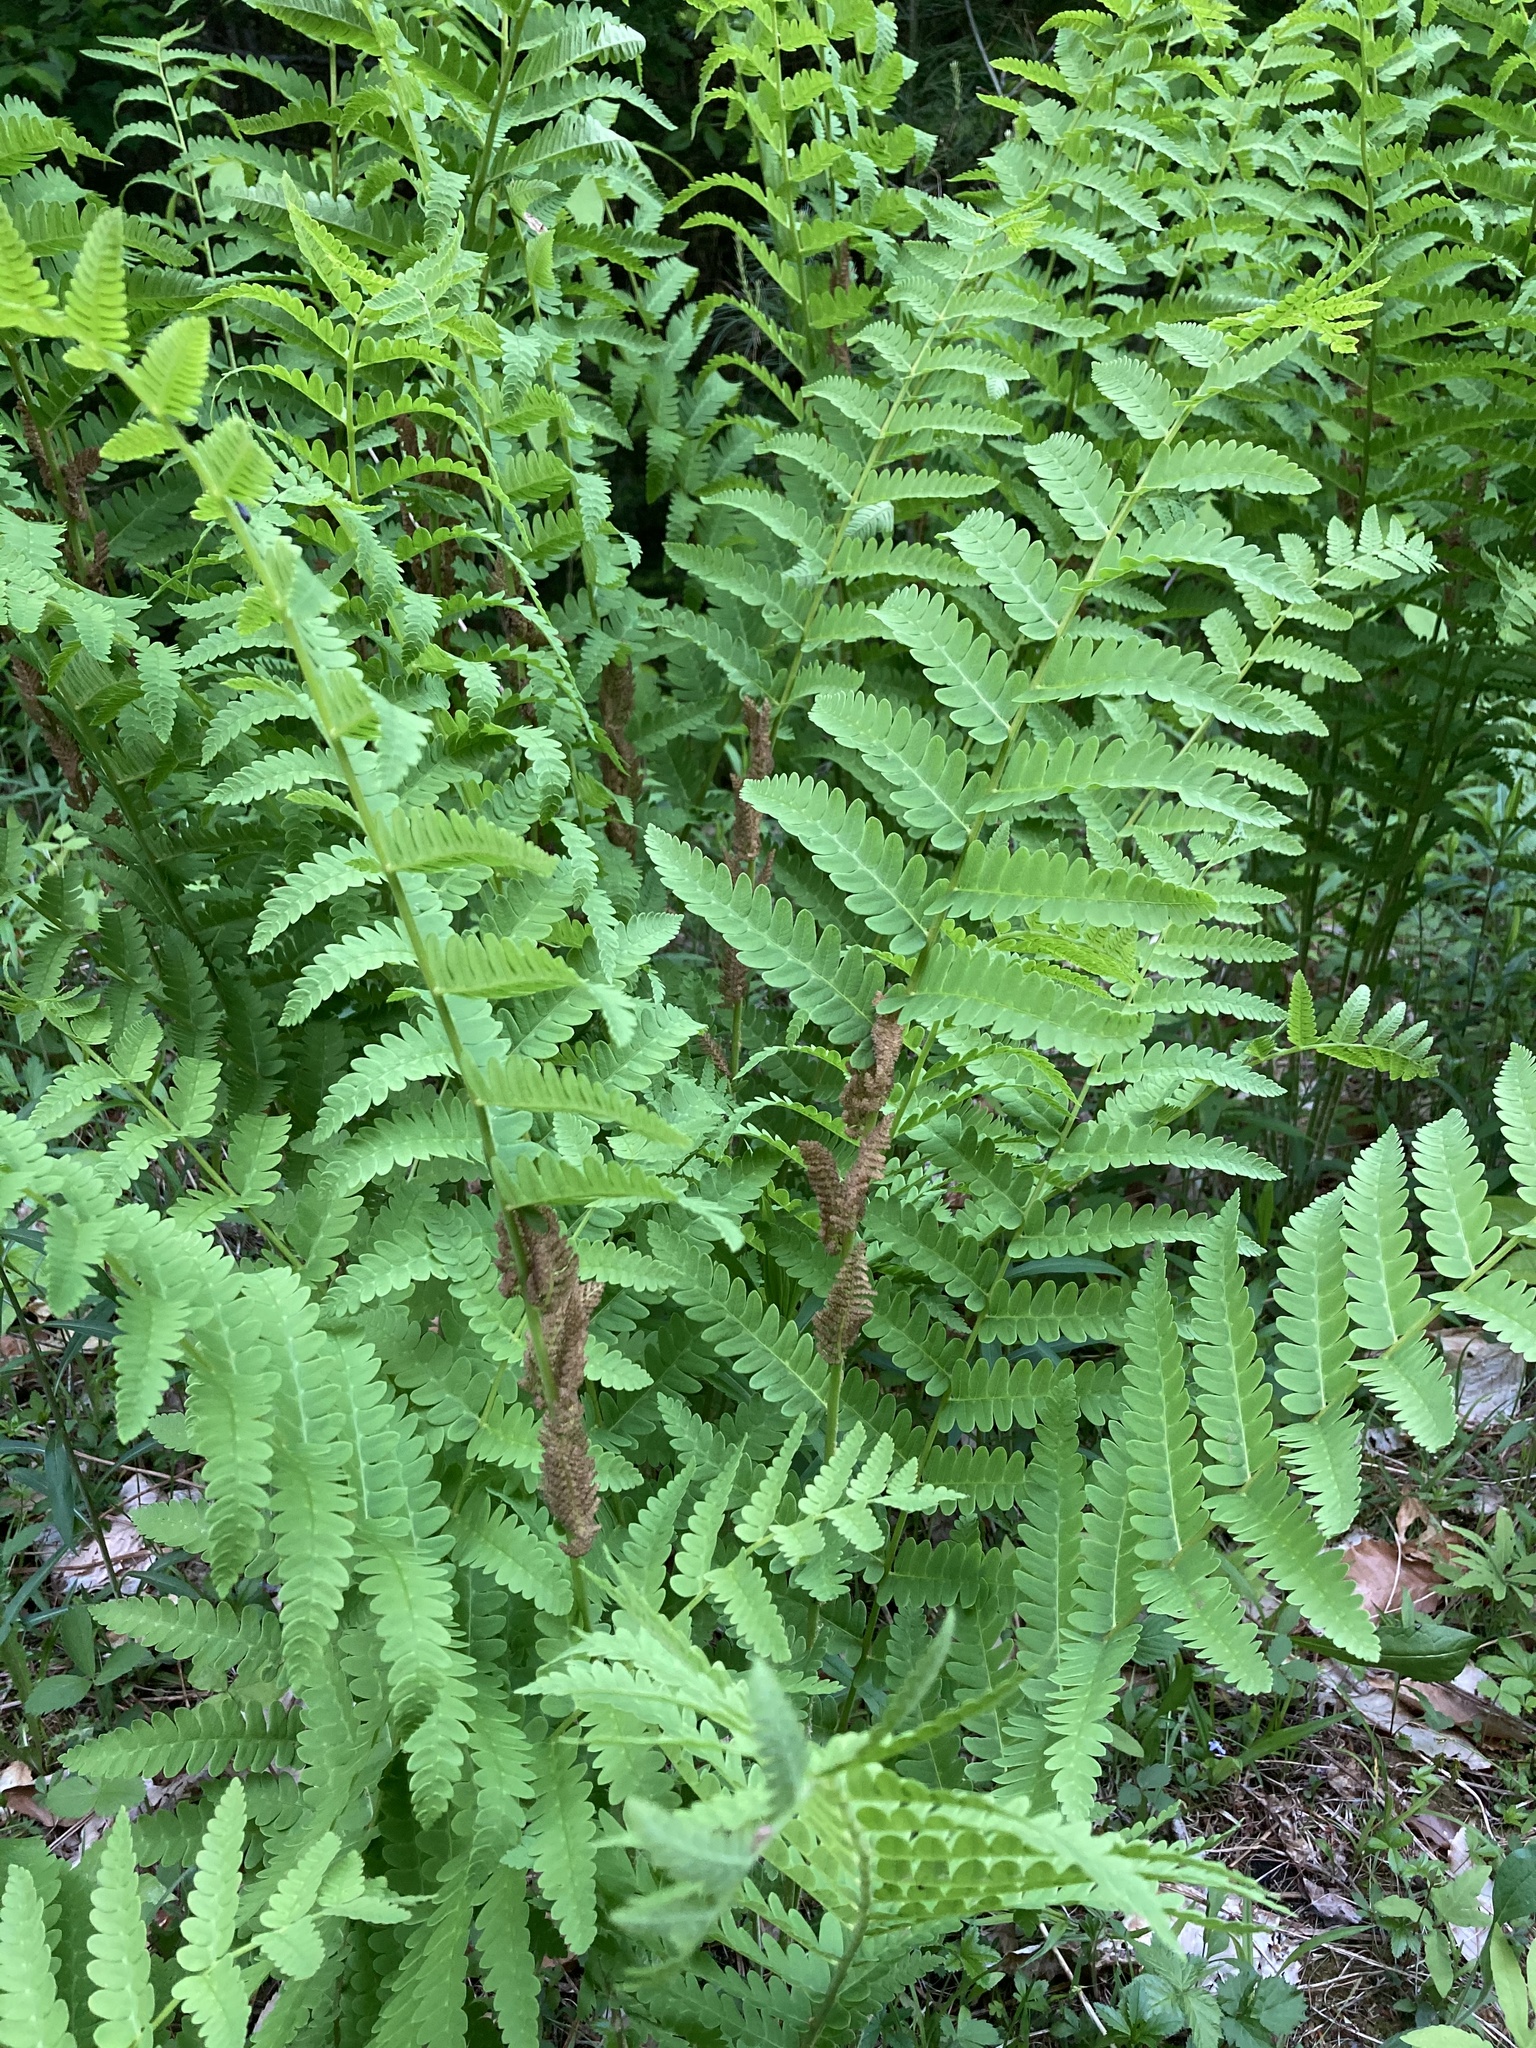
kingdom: Plantae
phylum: Tracheophyta
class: Polypodiopsida
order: Osmundales
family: Osmundaceae
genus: Claytosmunda
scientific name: Claytosmunda claytoniana
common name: Clayton's fern
